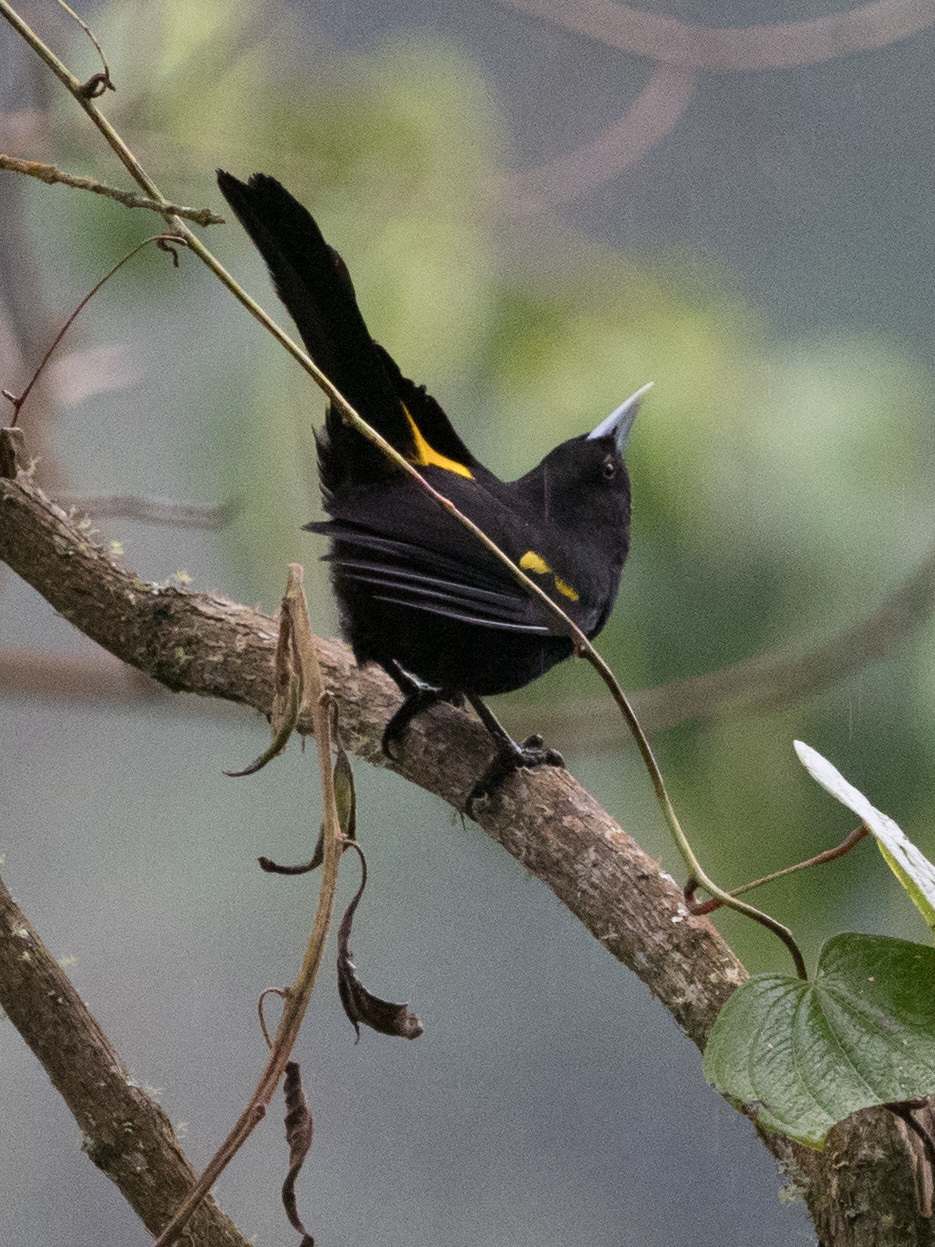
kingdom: Animalia
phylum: Chordata
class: Aves
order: Passeriformes
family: Icteridae
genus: Cacicus
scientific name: Cacicus chrysonotus
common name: Southern mountain cacique
